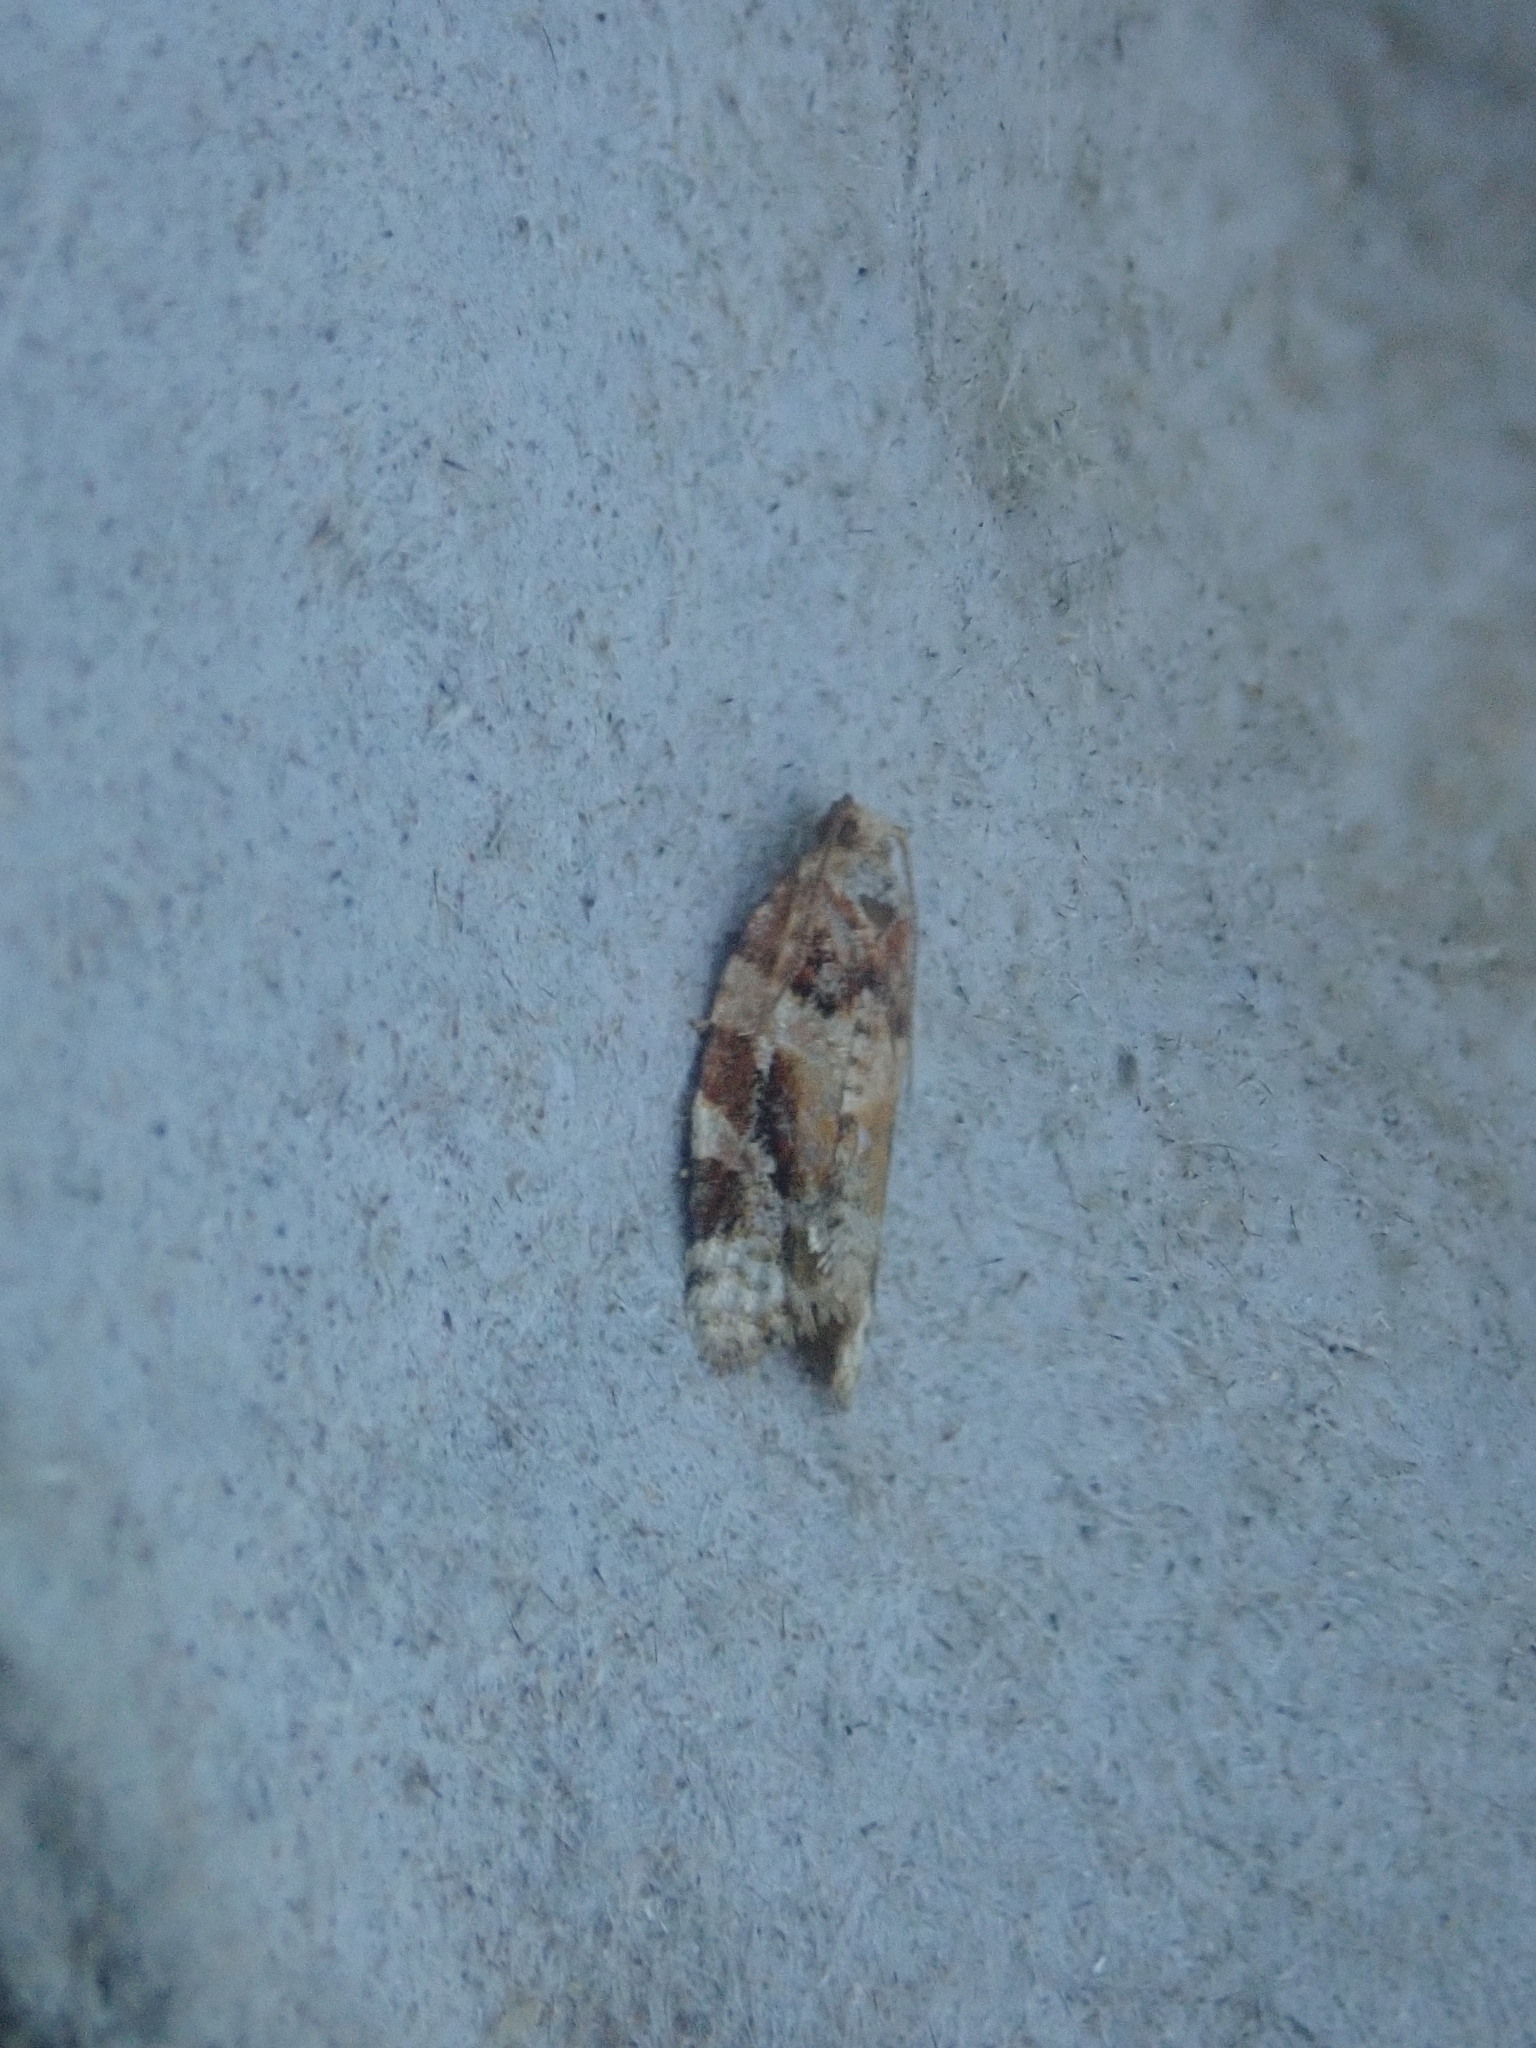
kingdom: Animalia
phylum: Arthropoda
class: Insecta
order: Lepidoptera
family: Tortricidae
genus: Argyrotaenia
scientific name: Argyrotaenia velutinana
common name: Red-banded leafroller moth
